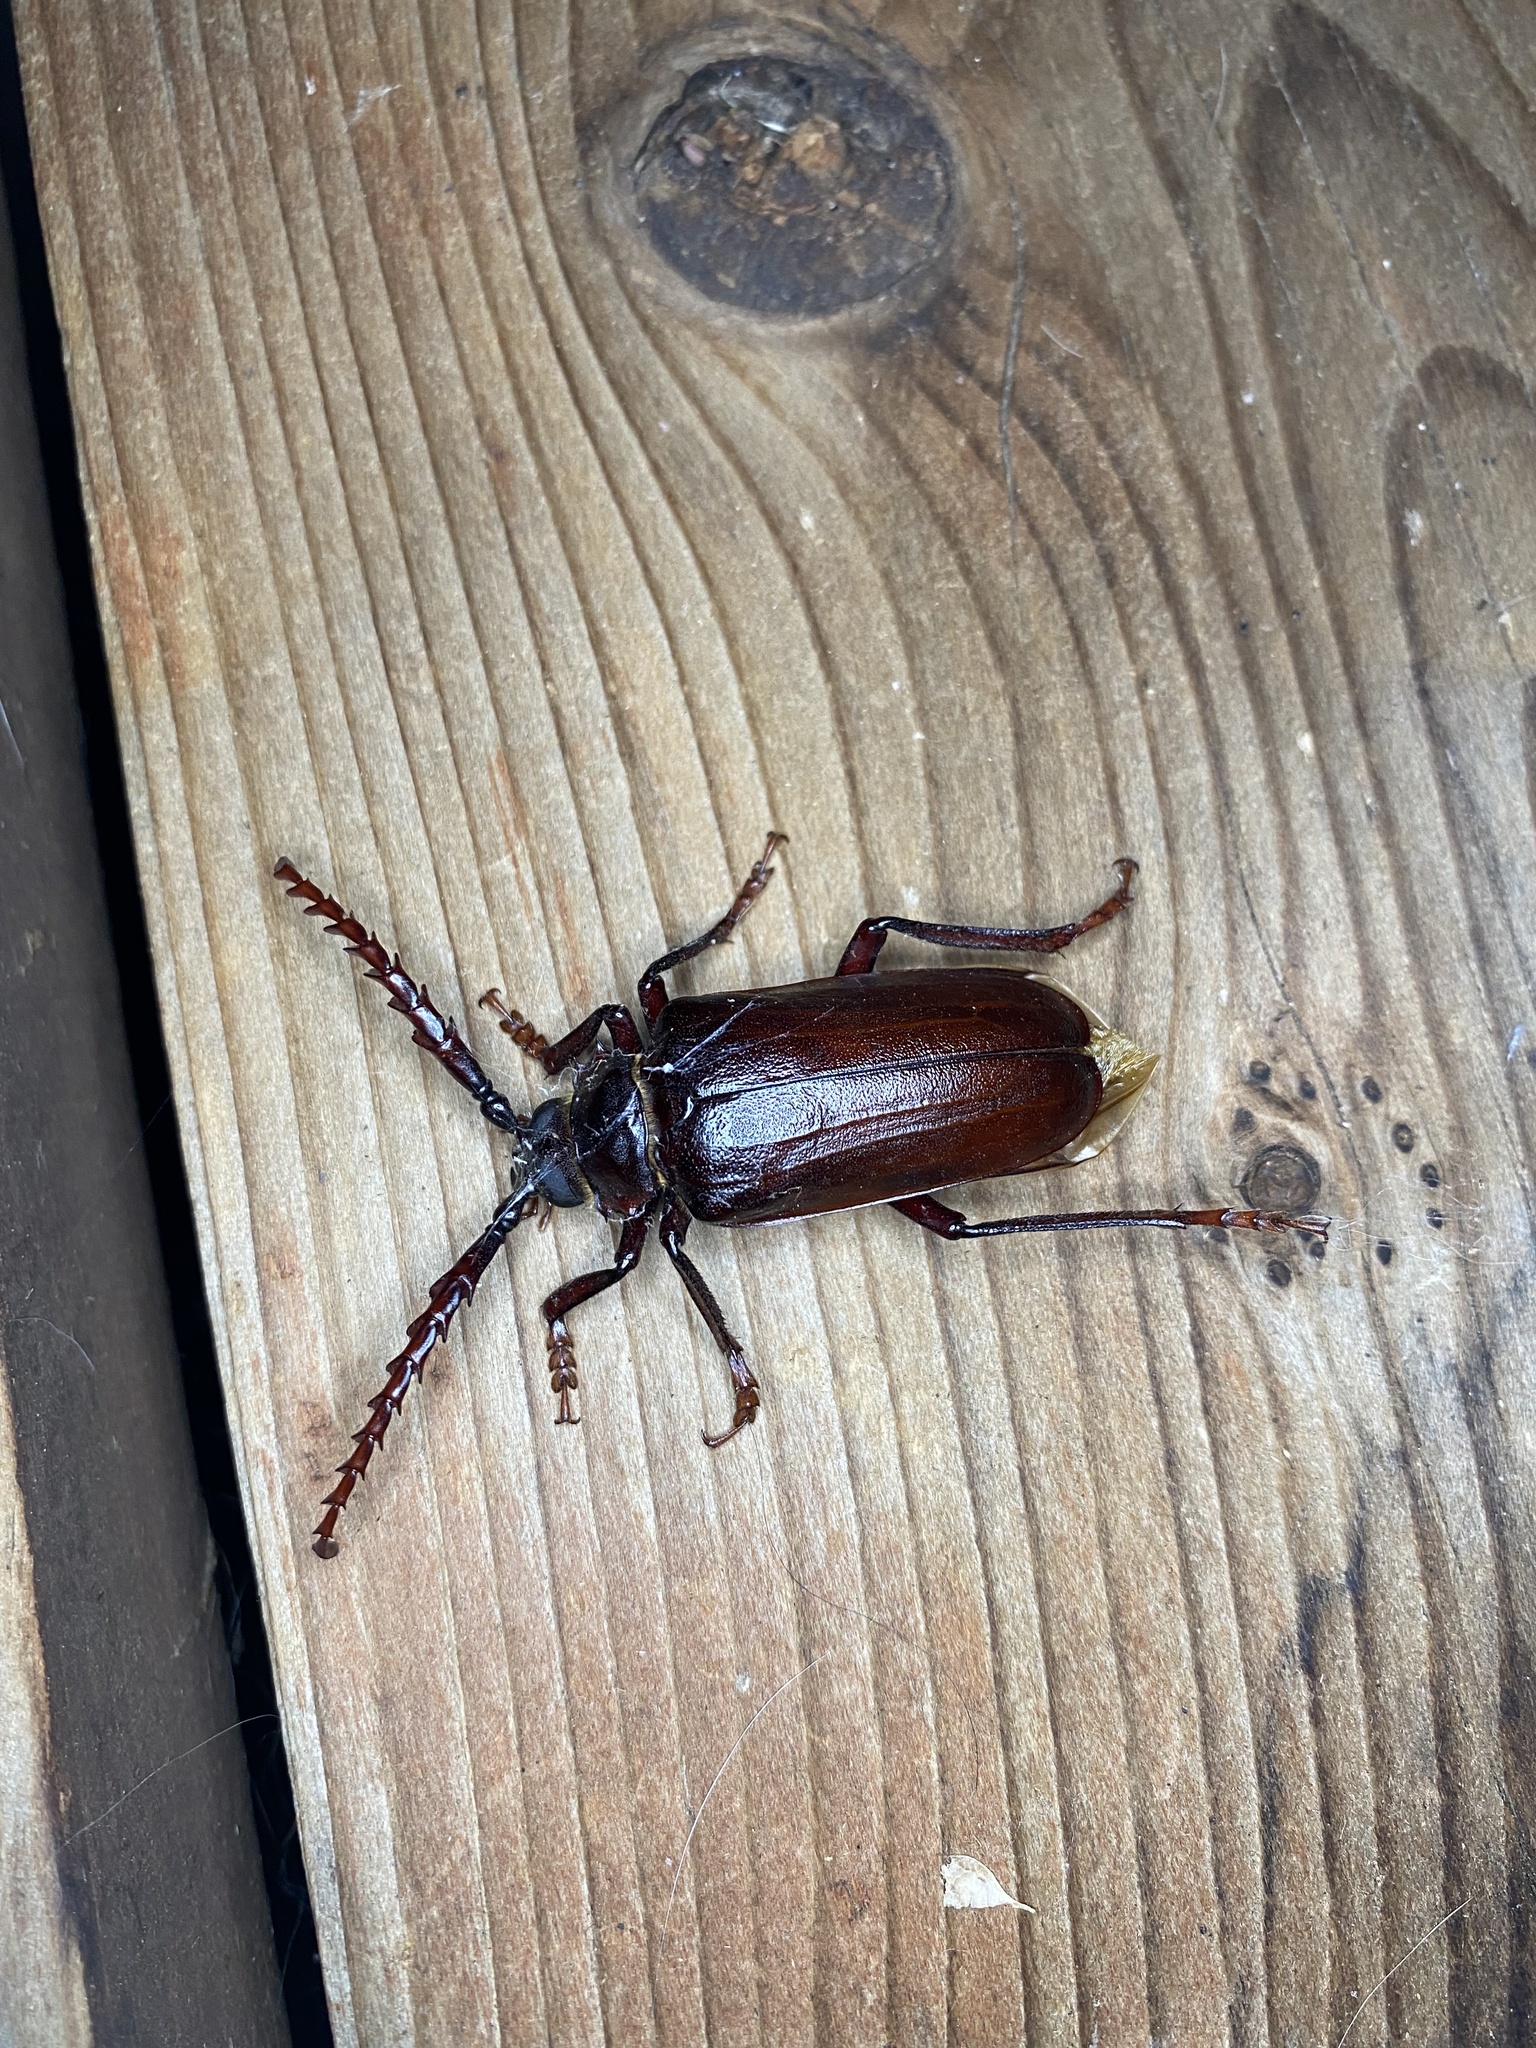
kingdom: Animalia
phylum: Arthropoda
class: Insecta
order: Coleoptera
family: Cerambycidae
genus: Prionus
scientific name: Prionus californicus
